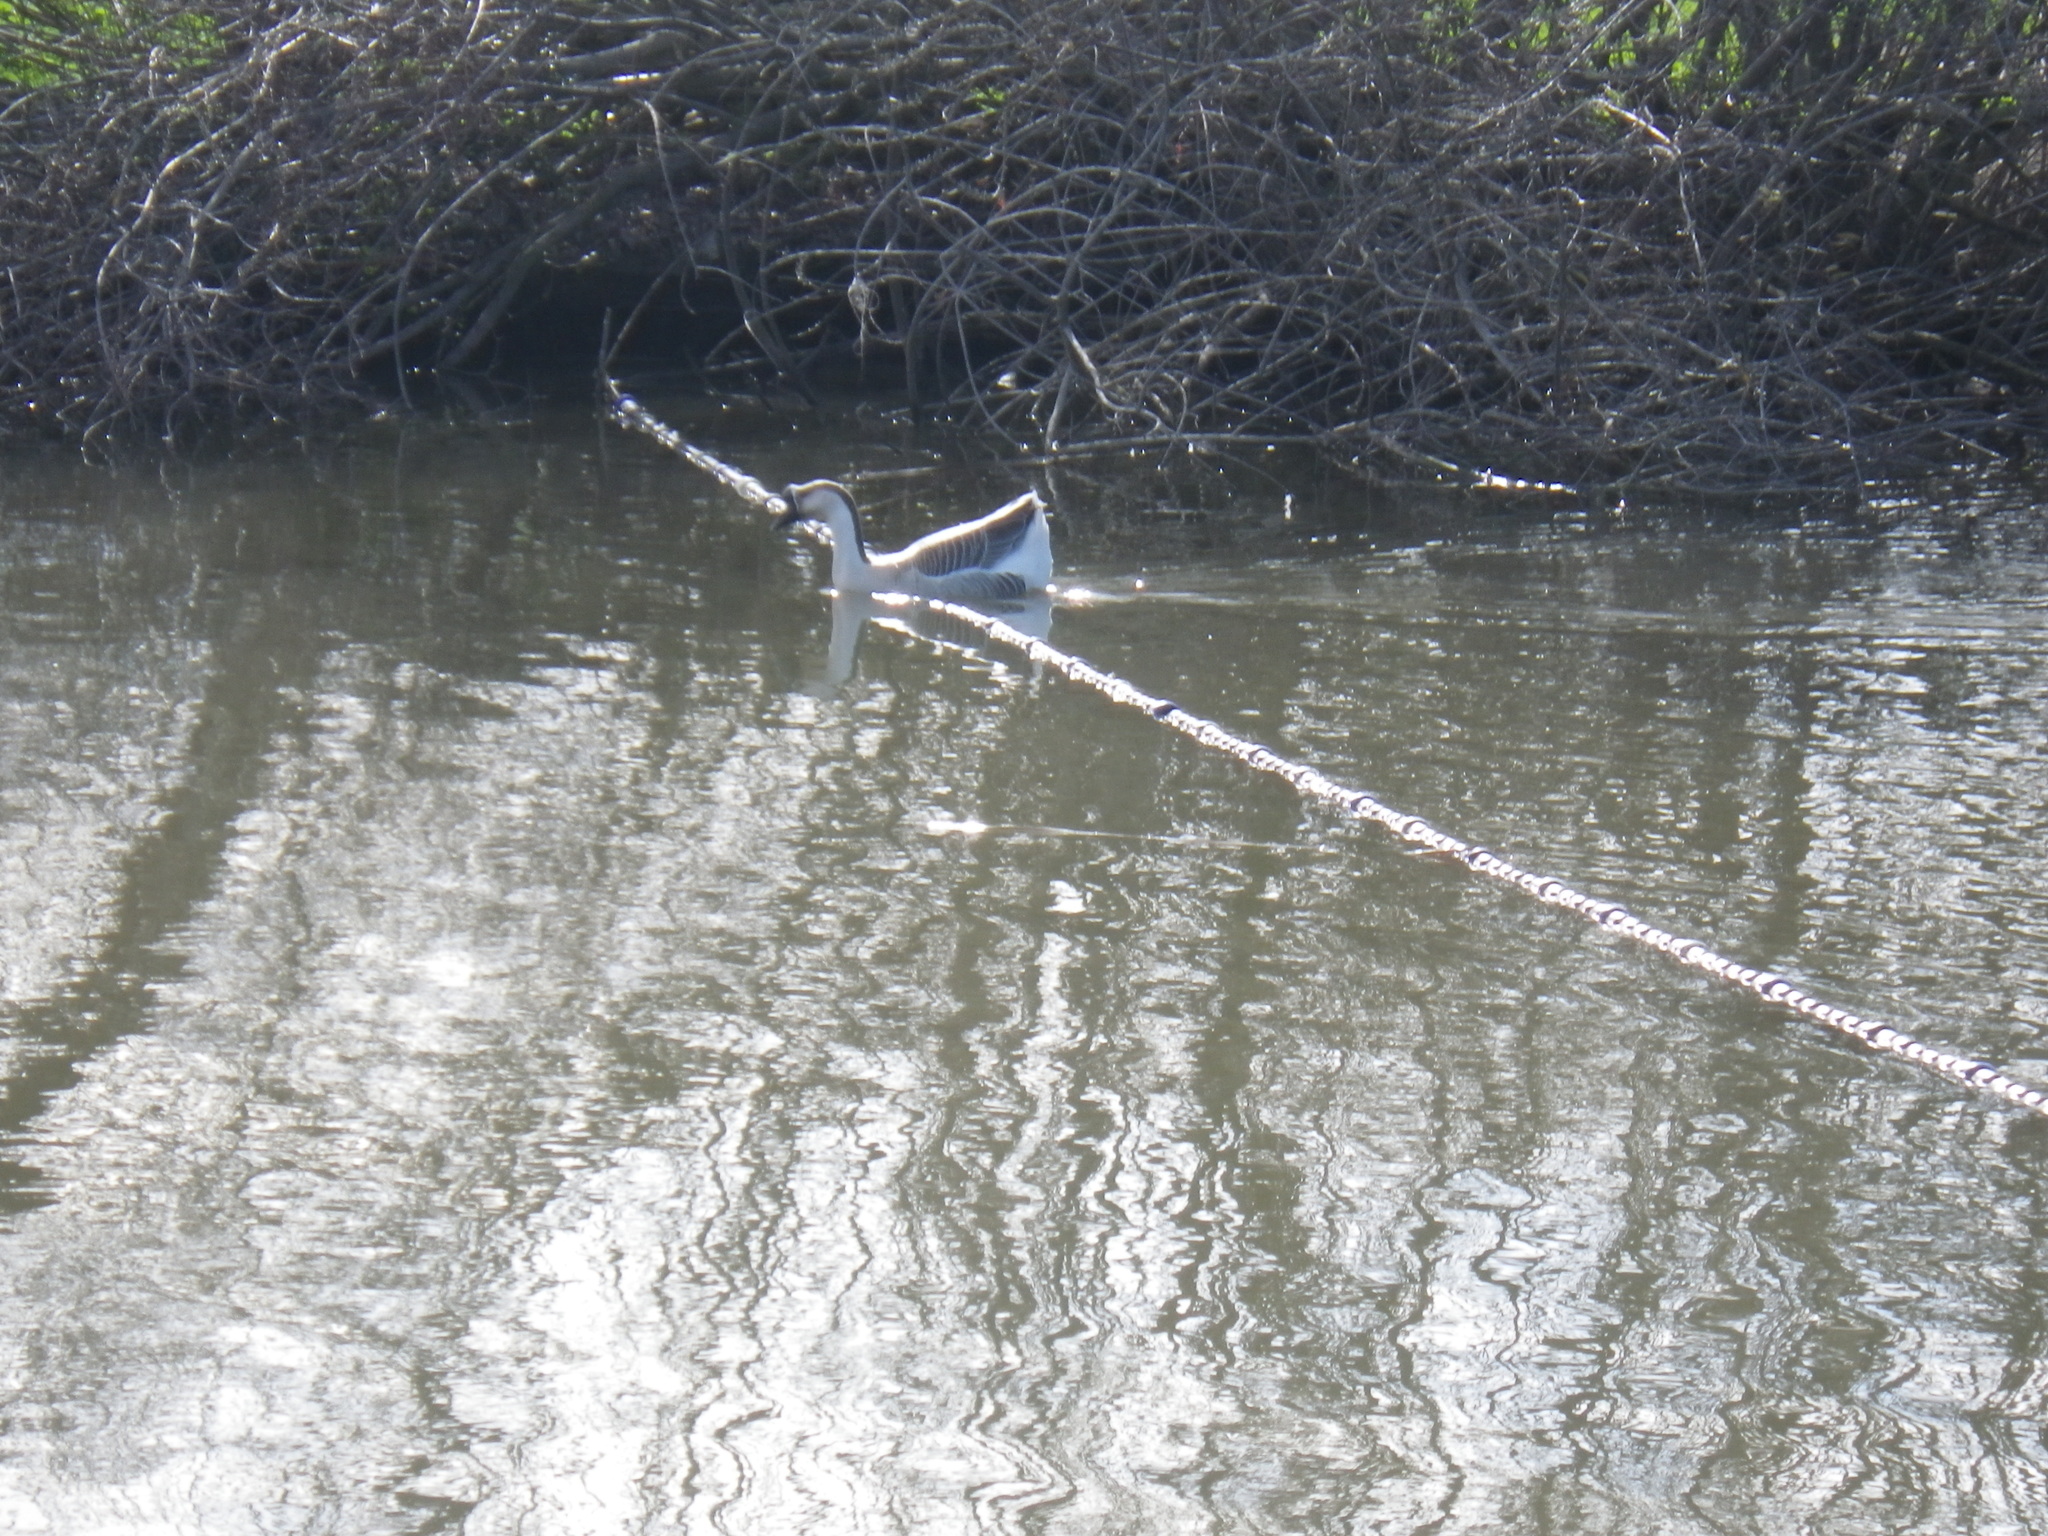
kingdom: Animalia
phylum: Chordata
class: Aves
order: Anseriformes
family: Anatidae
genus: Anser
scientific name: Anser cygnoides
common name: Swan goose
